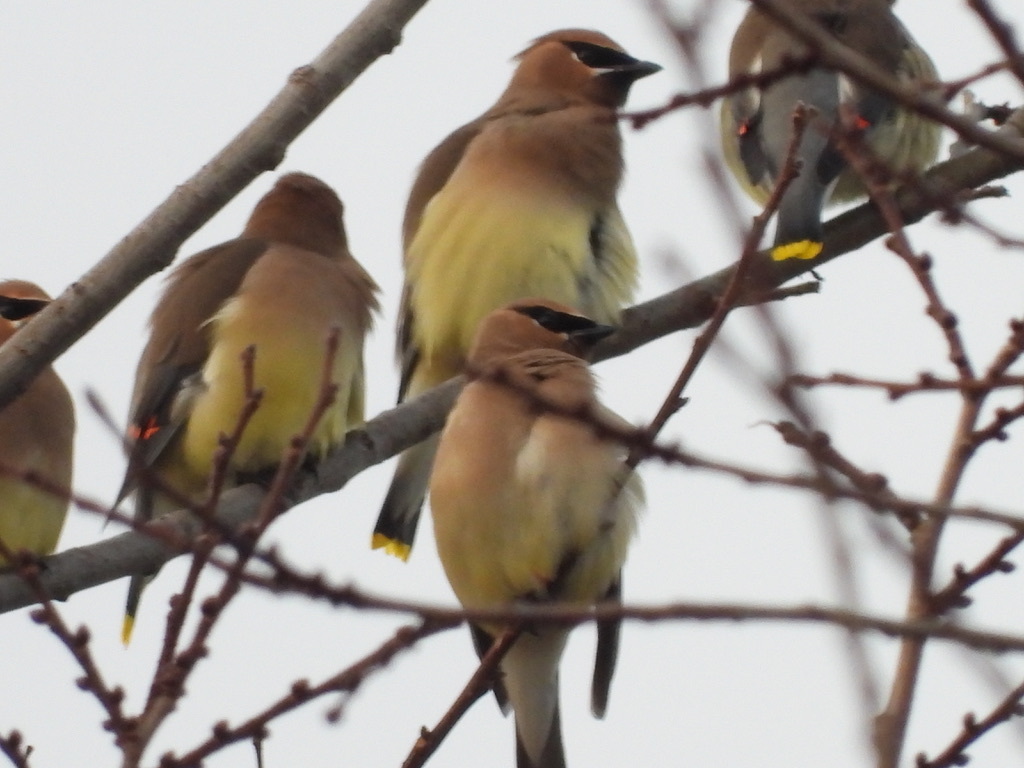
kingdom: Animalia
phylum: Chordata
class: Aves
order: Passeriformes
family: Bombycillidae
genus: Bombycilla
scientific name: Bombycilla cedrorum
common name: Cedar waxwing
